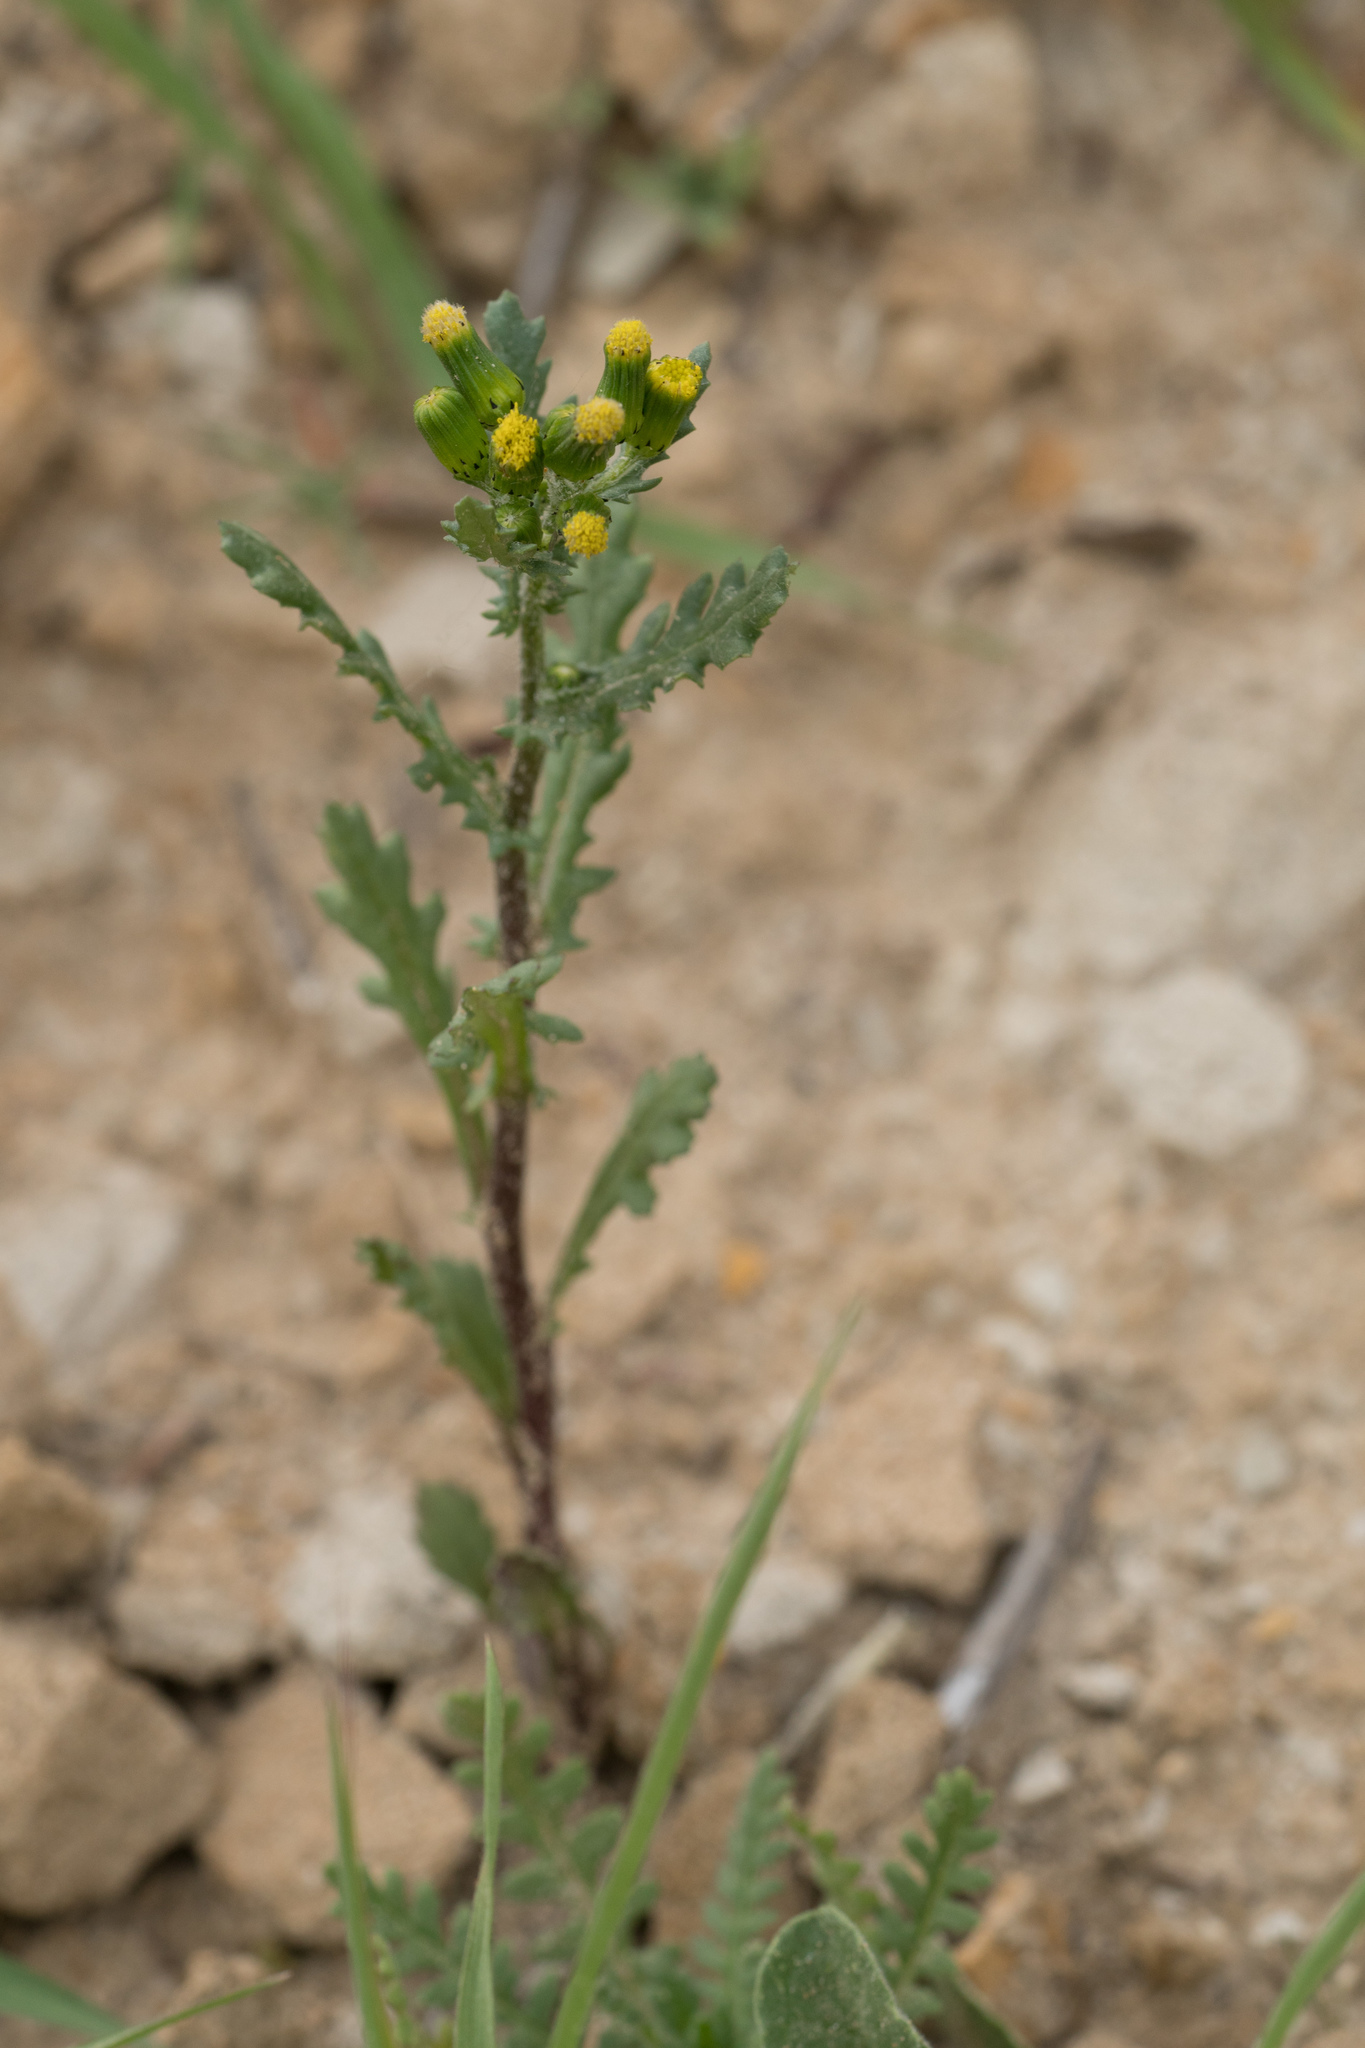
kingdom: Plantae
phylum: Tracheophyta
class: Magnoliopsida
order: Asterales
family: Asteraceae
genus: Senecio
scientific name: Senecio vulgaris
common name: Old-man-in-the-spring
